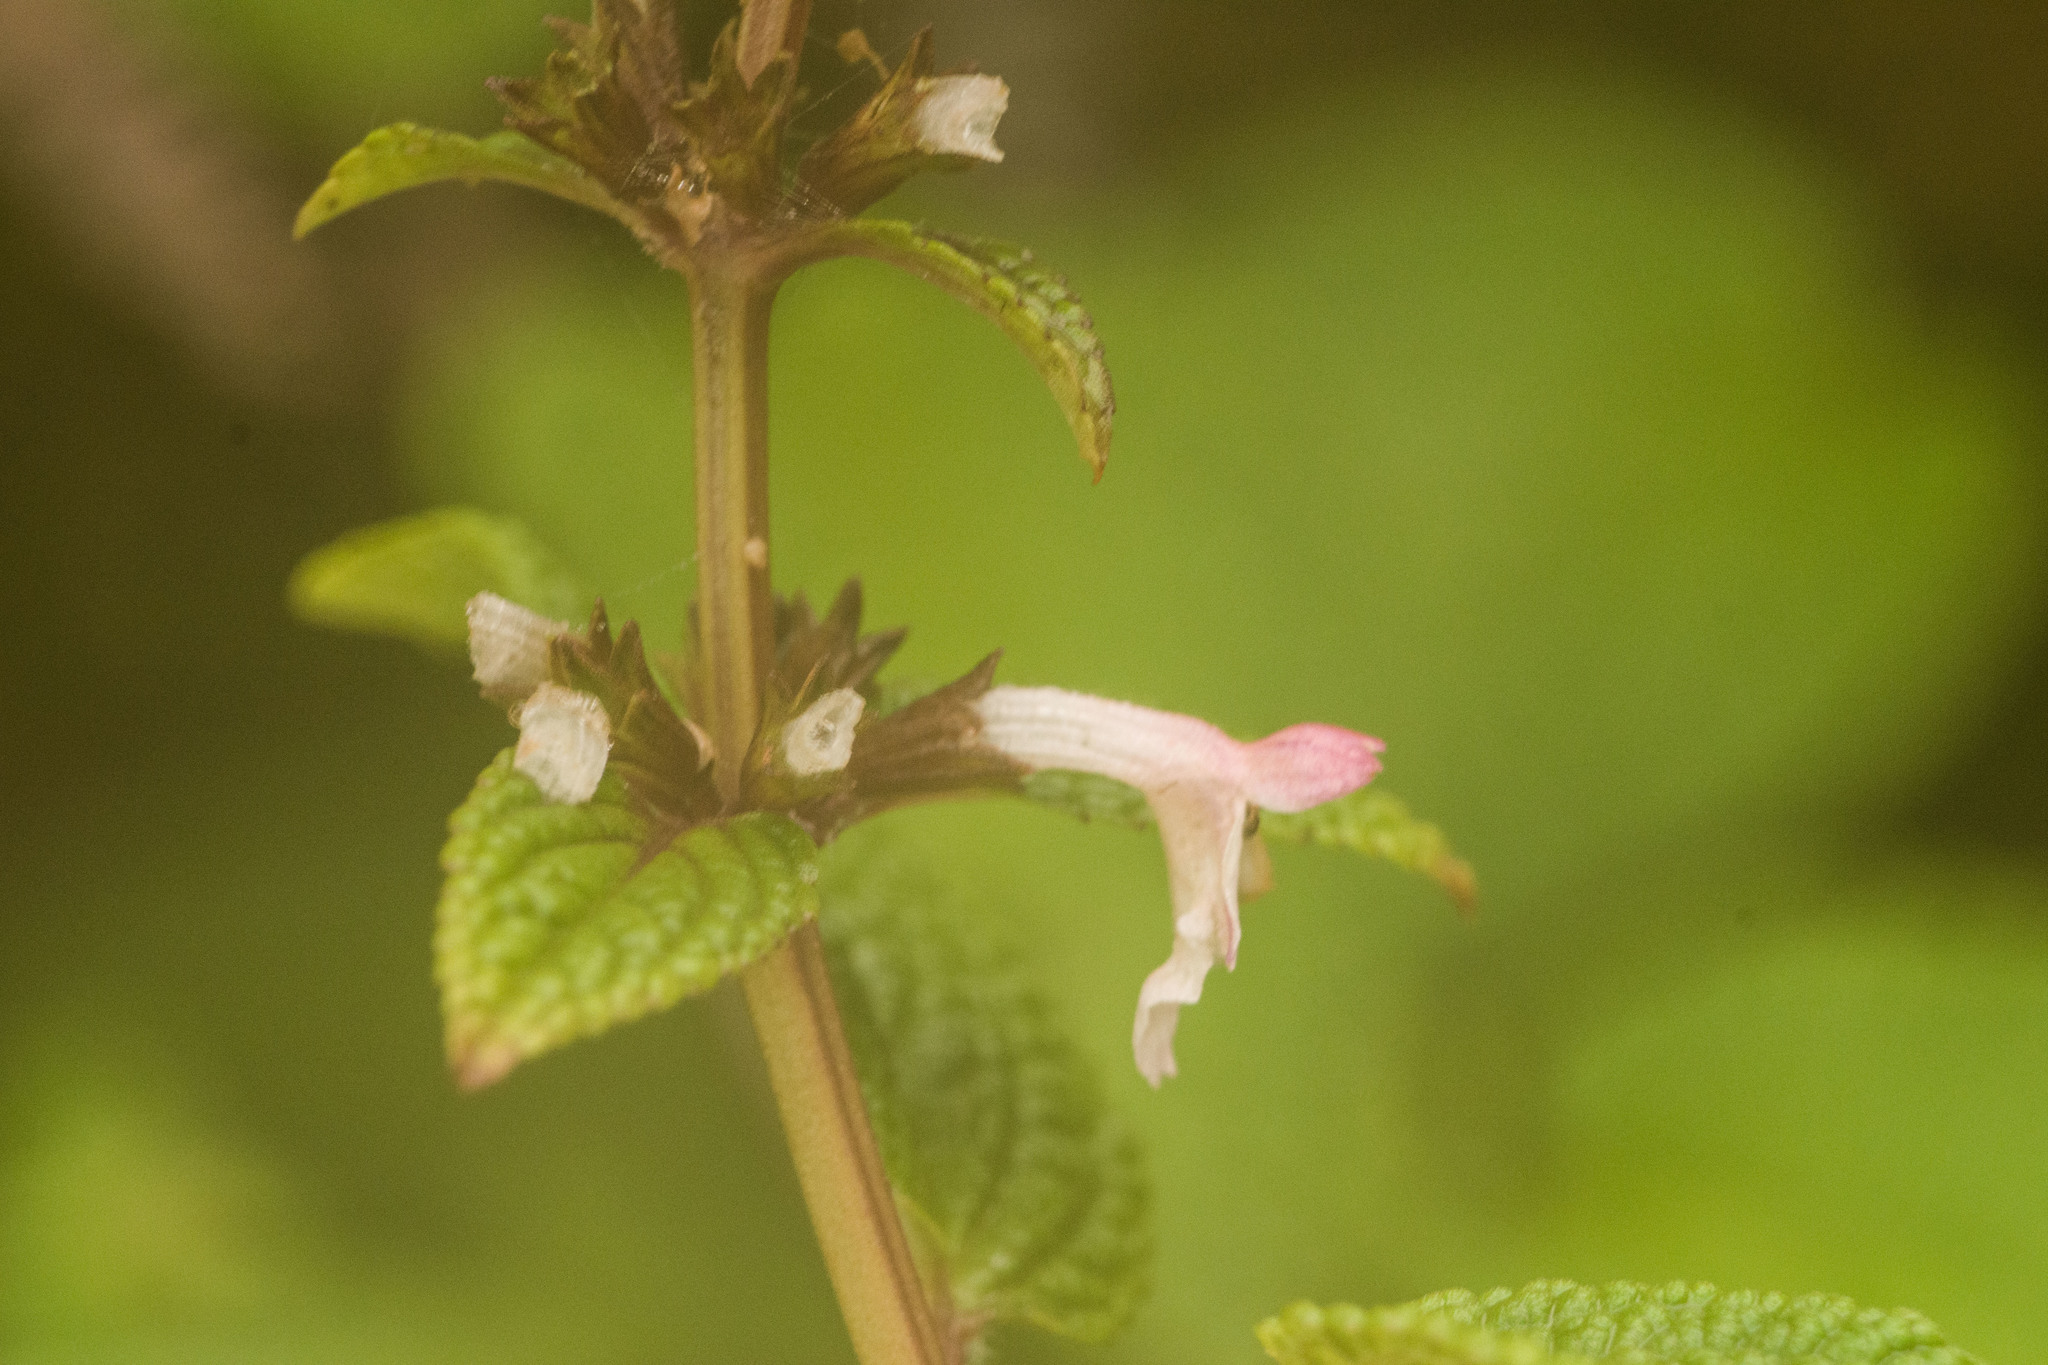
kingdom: Plantae
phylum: Tracheophyta
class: Magnoliopsida
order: Lamiales
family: Lamiaceae
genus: Phyllostegia
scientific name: Phyllostegia lantanoides
